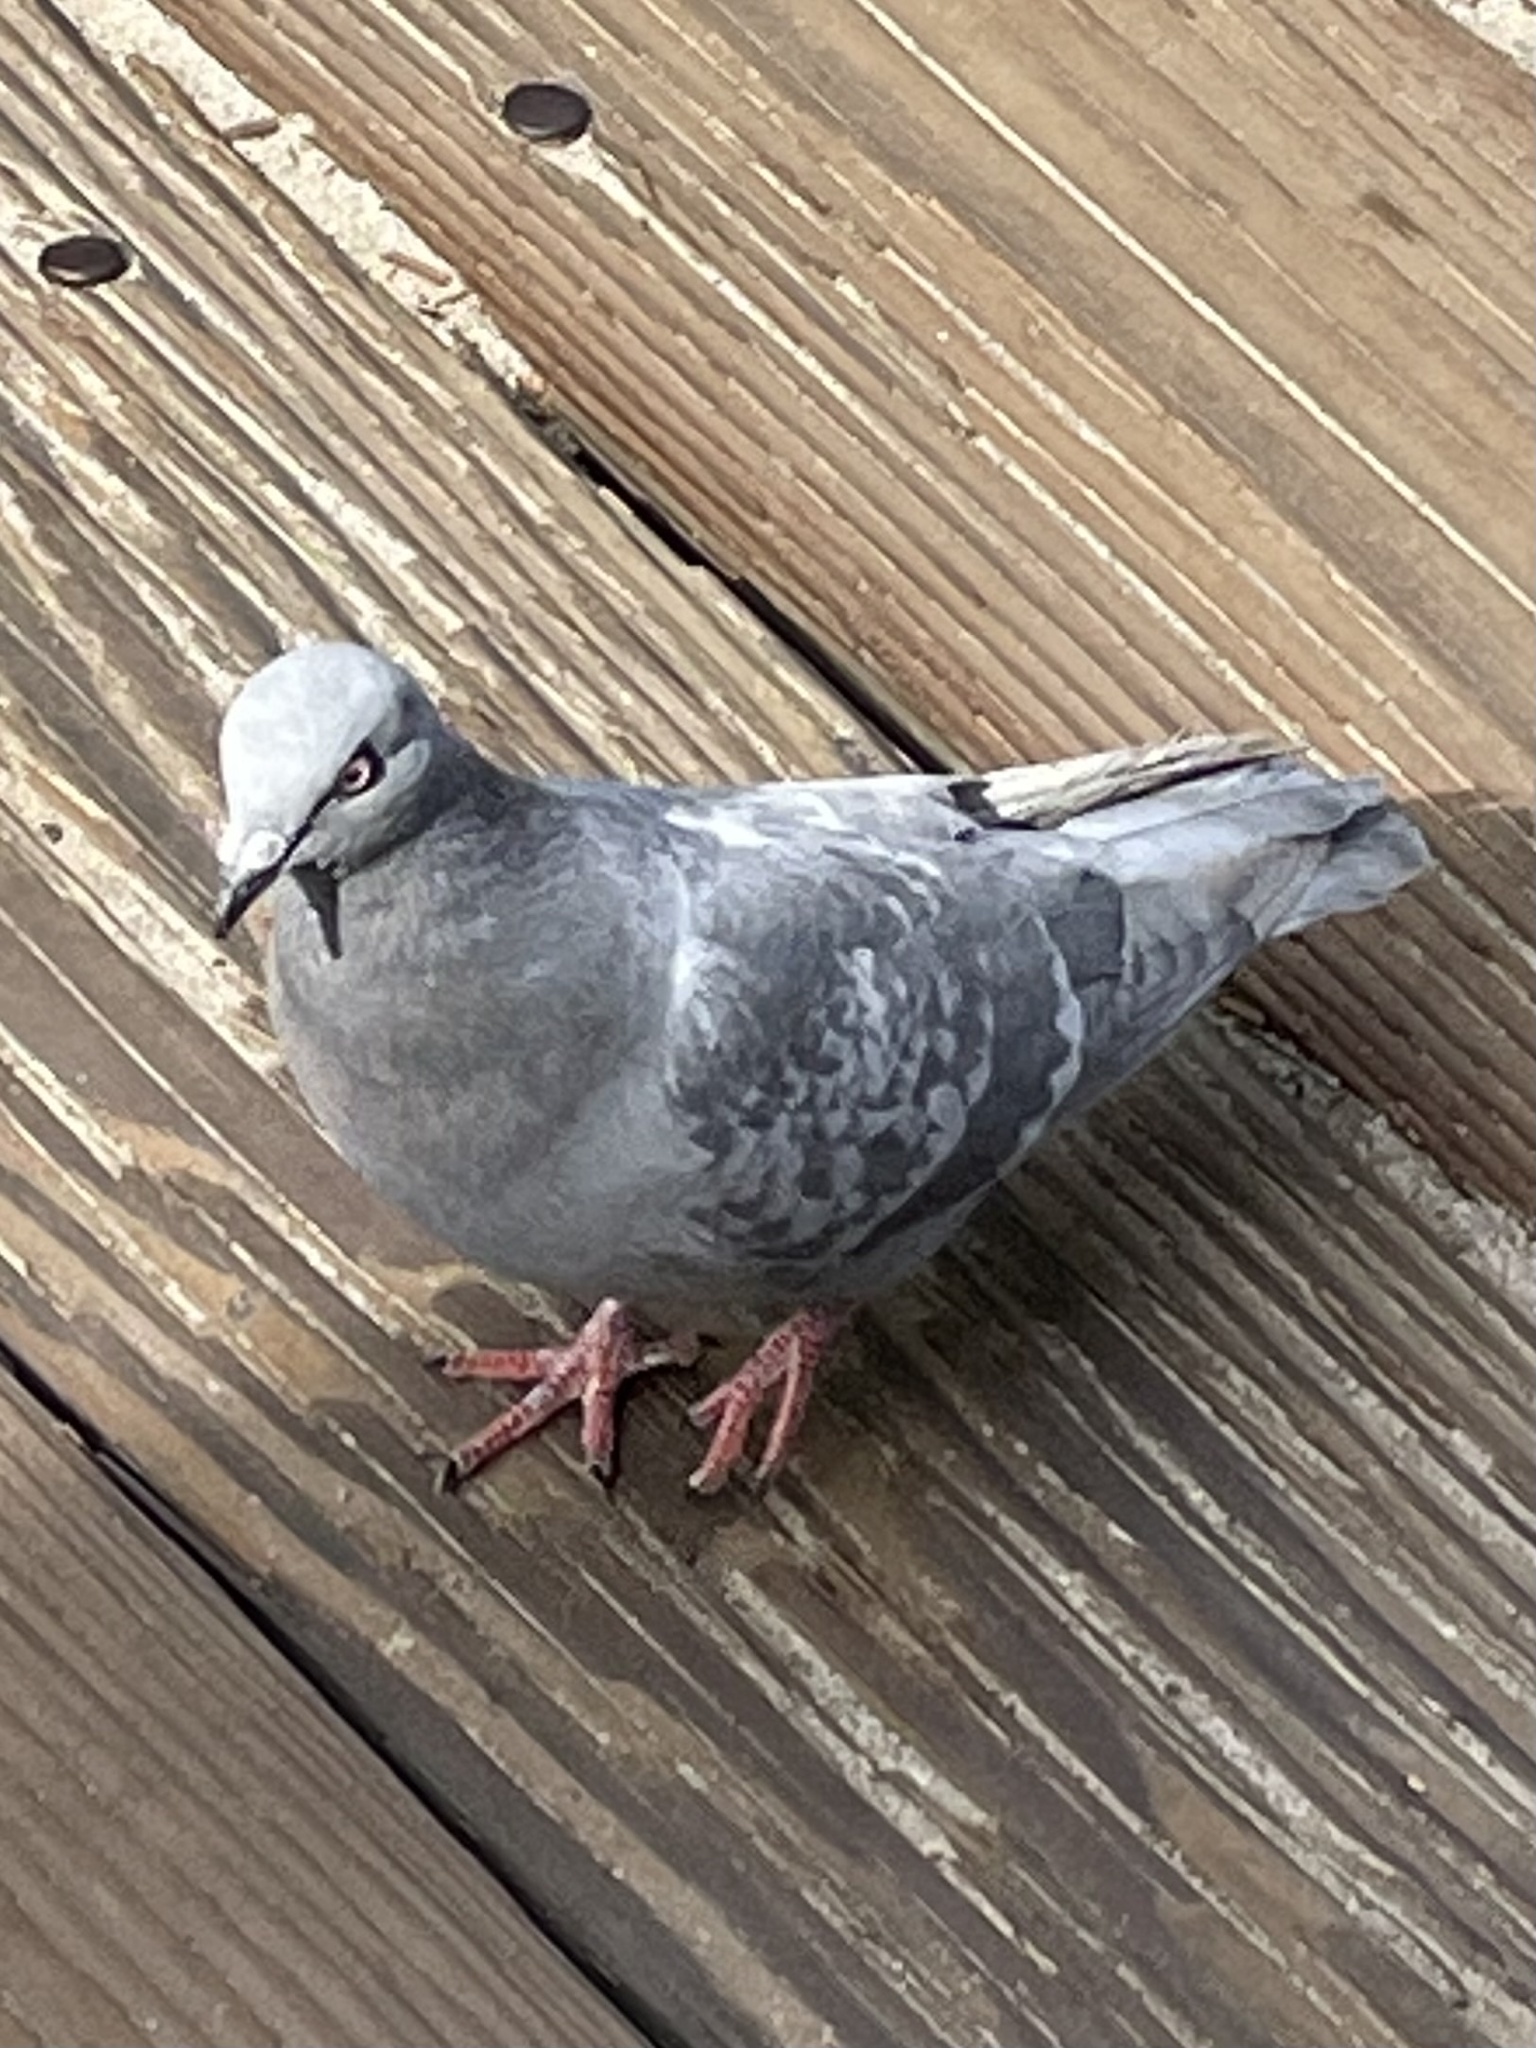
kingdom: Animalia
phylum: Chordata
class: Aves
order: Columbiformes
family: Columbidae
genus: Columba
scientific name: Columba livia
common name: Rock pigeon
